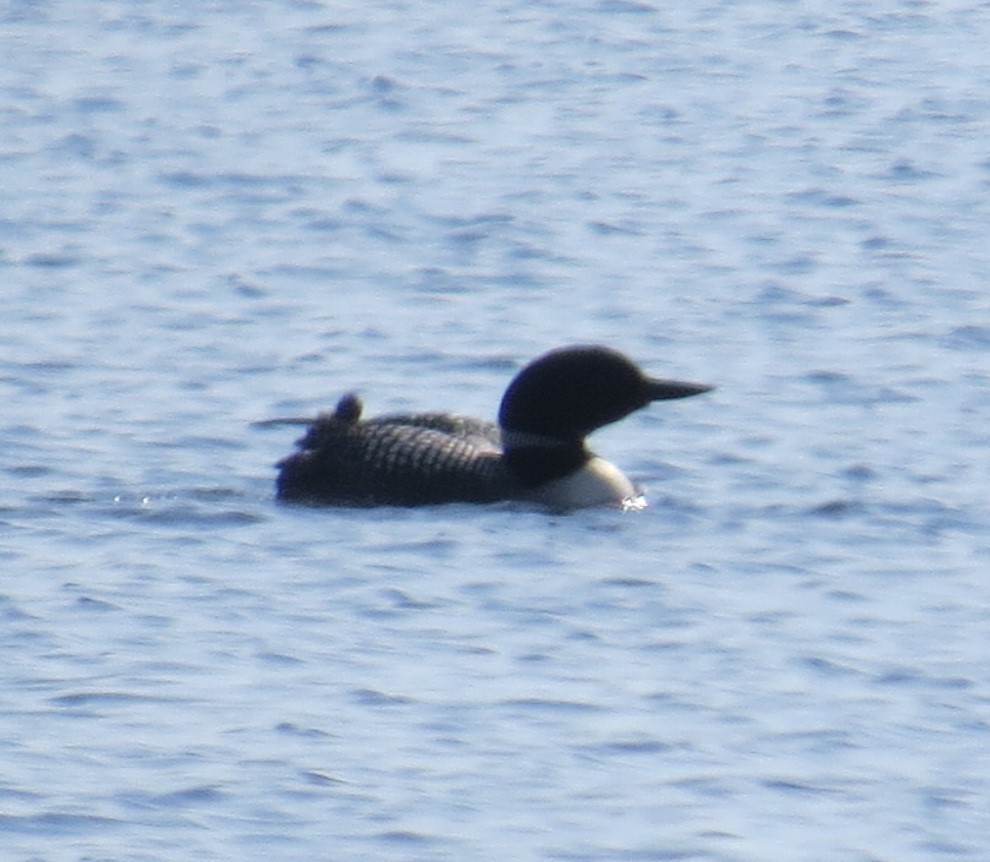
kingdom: Animalia
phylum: Chordata
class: Aves
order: Gaviiformes
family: Gaviidae
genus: Gavia
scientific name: Gavia immer
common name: Common loon
